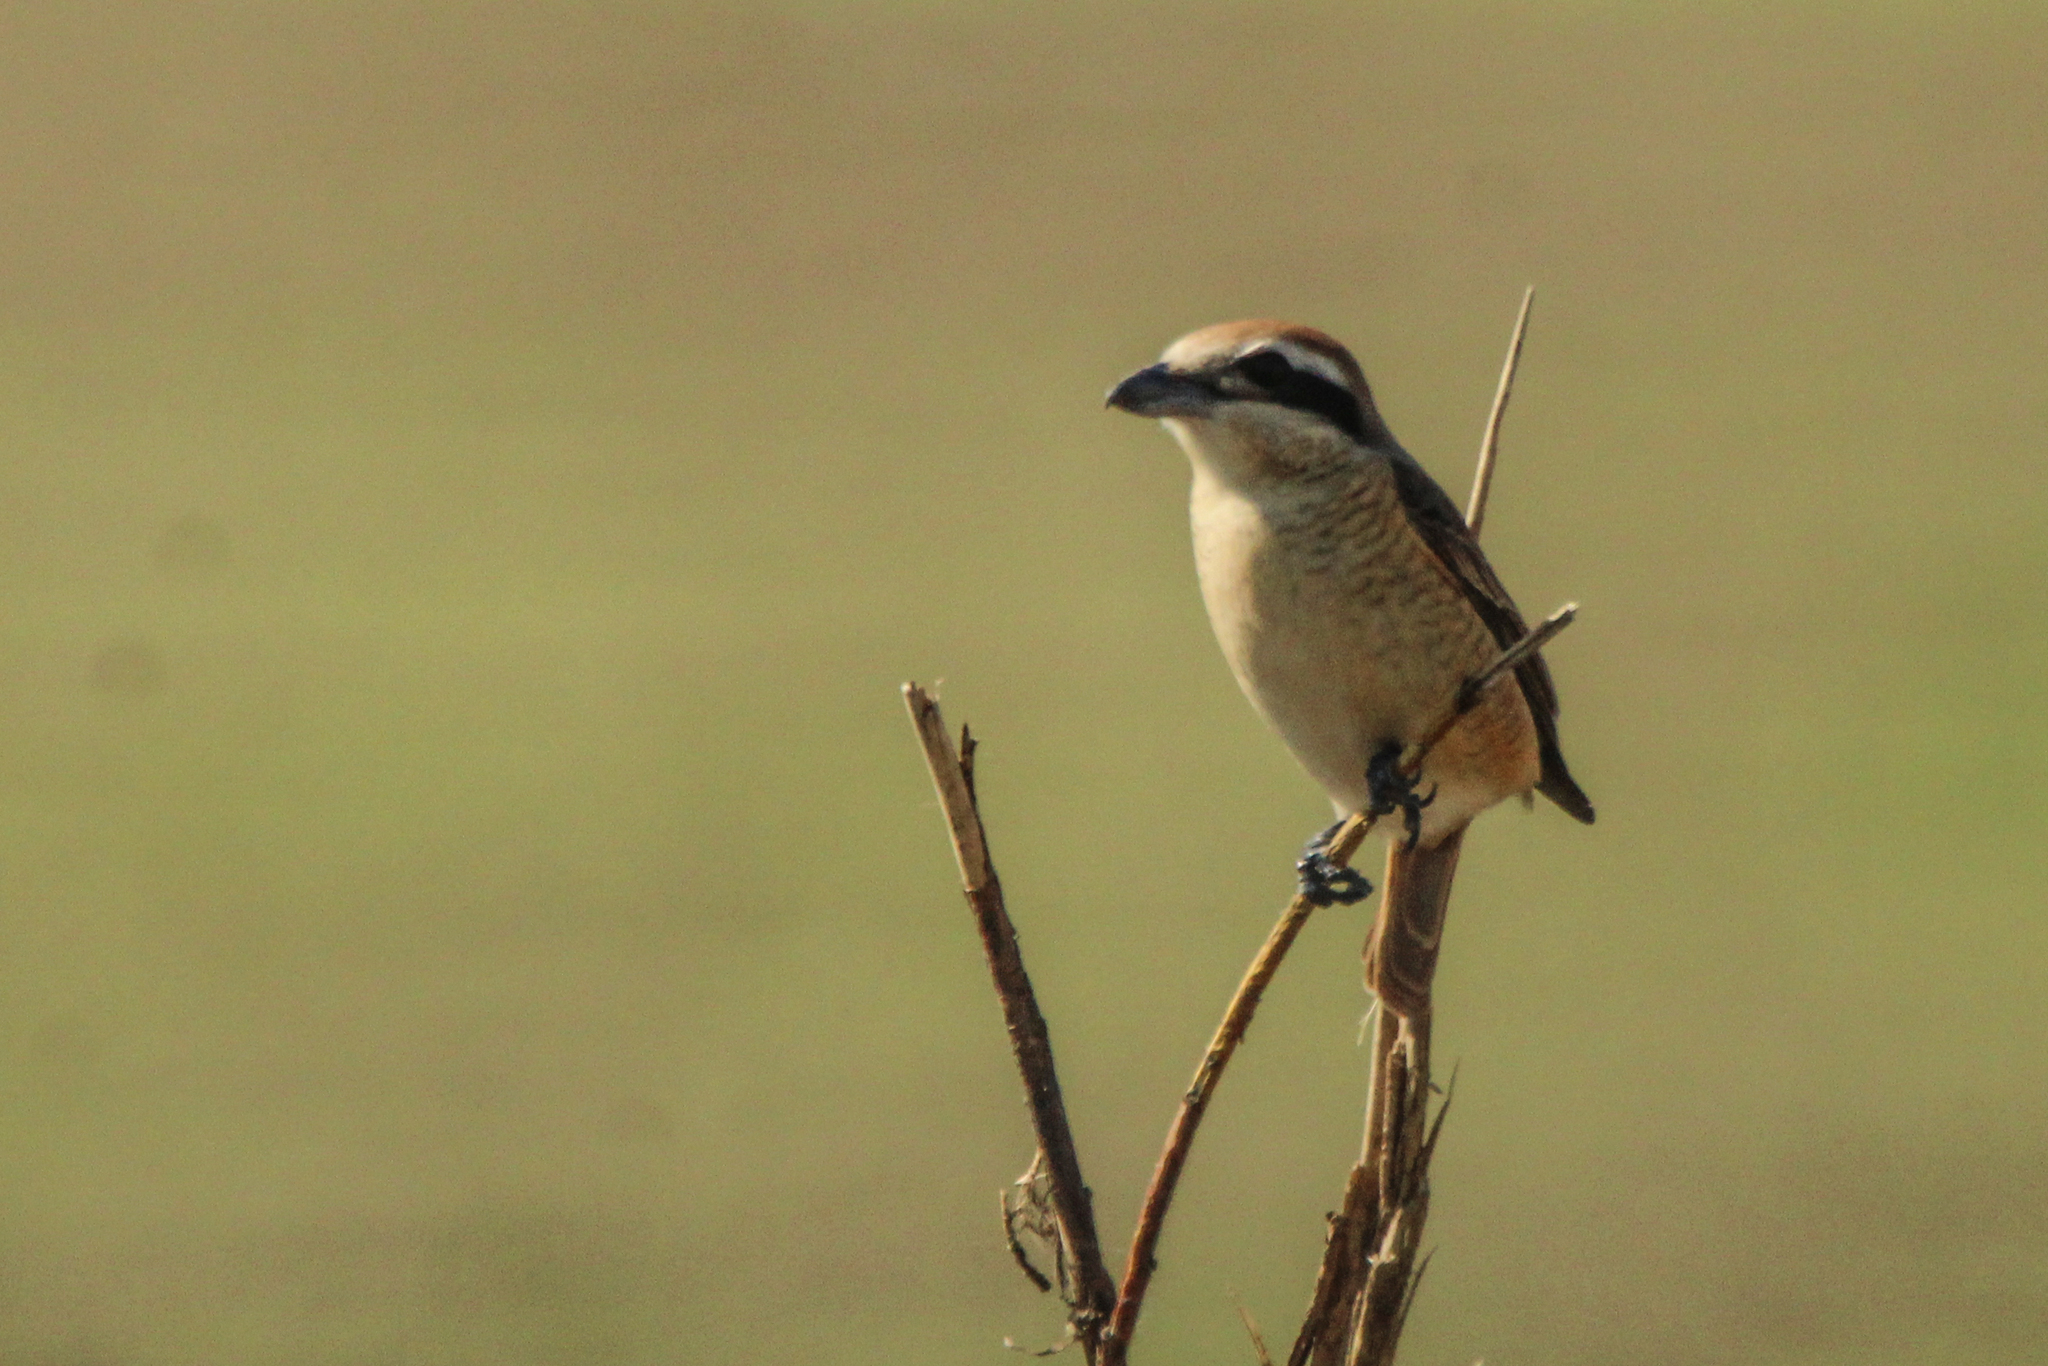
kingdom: Animalia
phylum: Chordata
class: Aves
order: Passeriformes
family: Laniidae
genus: Lanius
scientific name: Lanius cristatus
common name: Brown shrike
